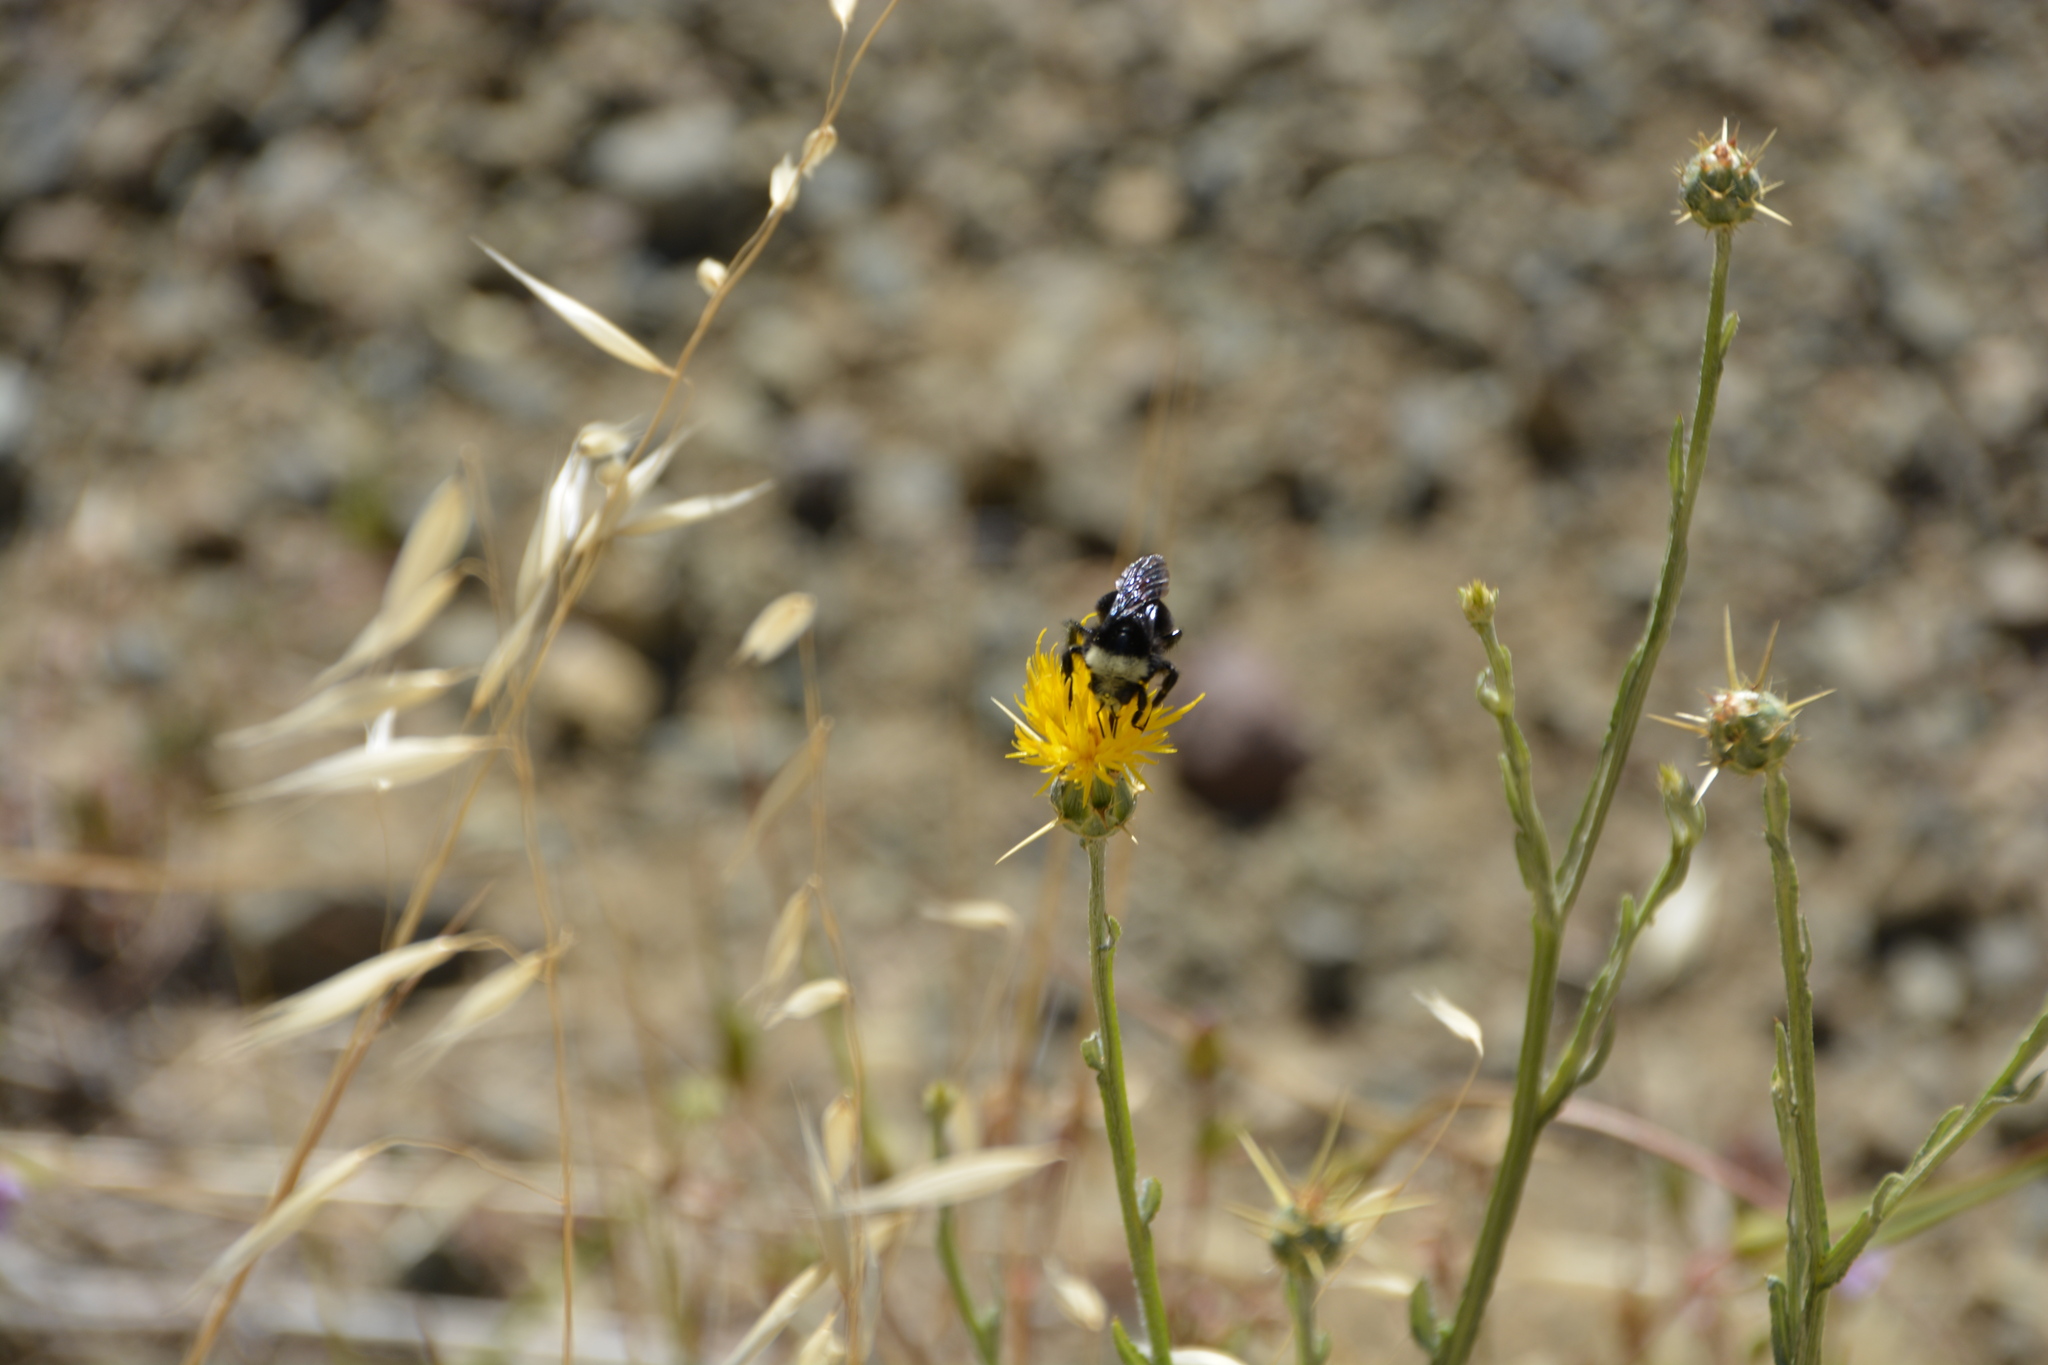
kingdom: Animalia
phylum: Arthropoda
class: Insecta
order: Hymenoptera
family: Apidae
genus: Bombus
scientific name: Bombus vosnesenskii
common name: Vosnesensky bumble bee
